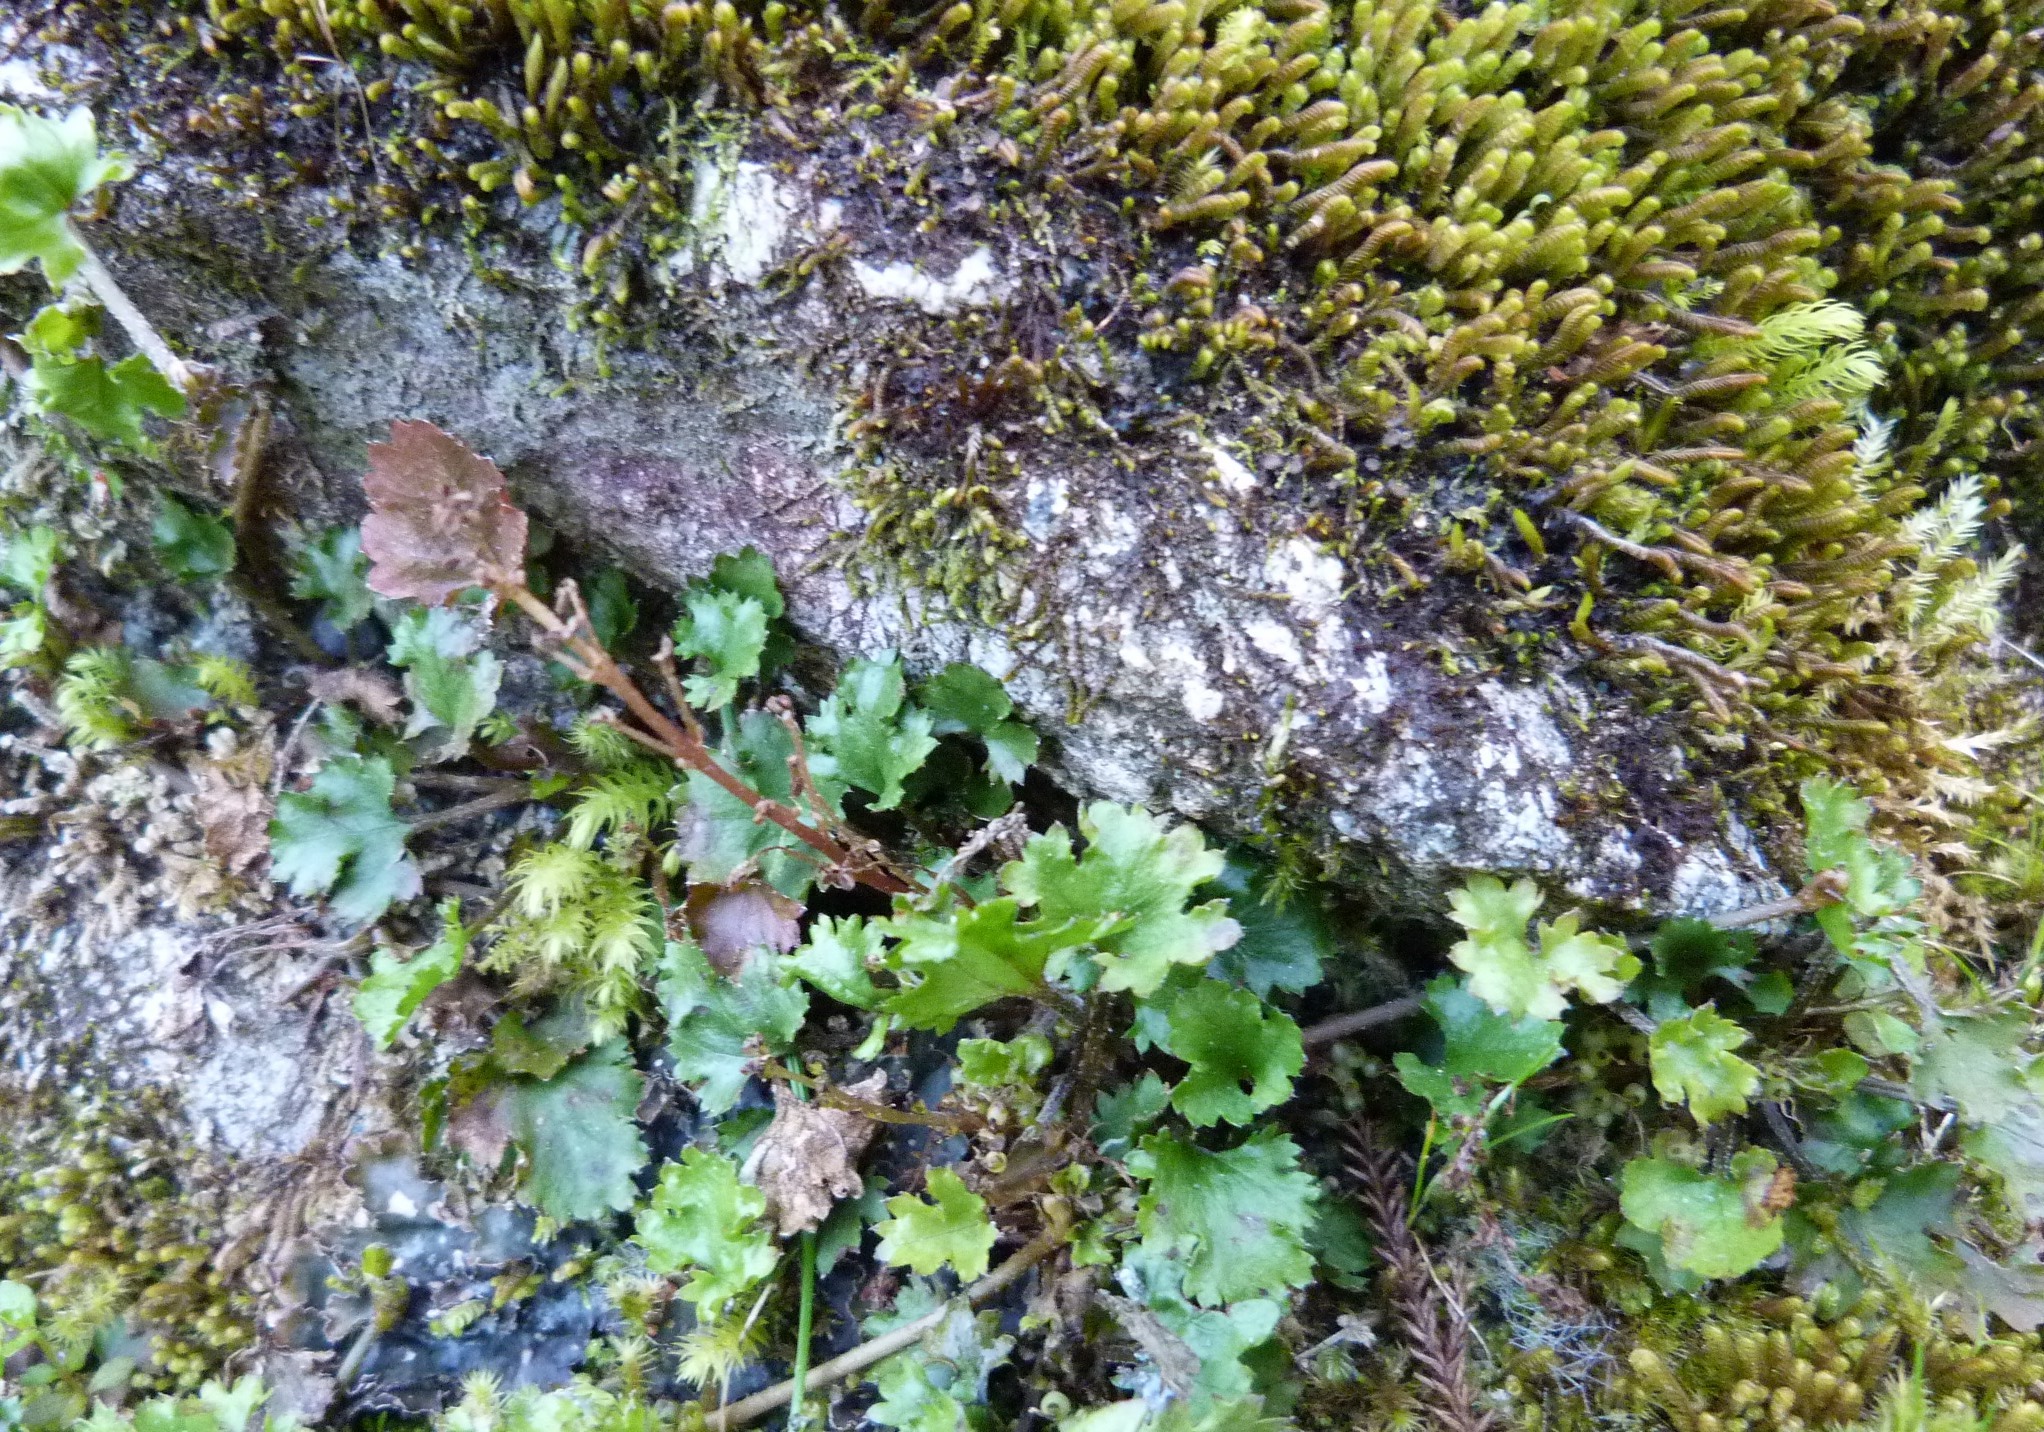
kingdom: Plantae
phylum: Tracheophyta
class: Magnoliopsida
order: Gunnerales
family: Gunneraceae
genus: Gunnera
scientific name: Gunnera monoica
